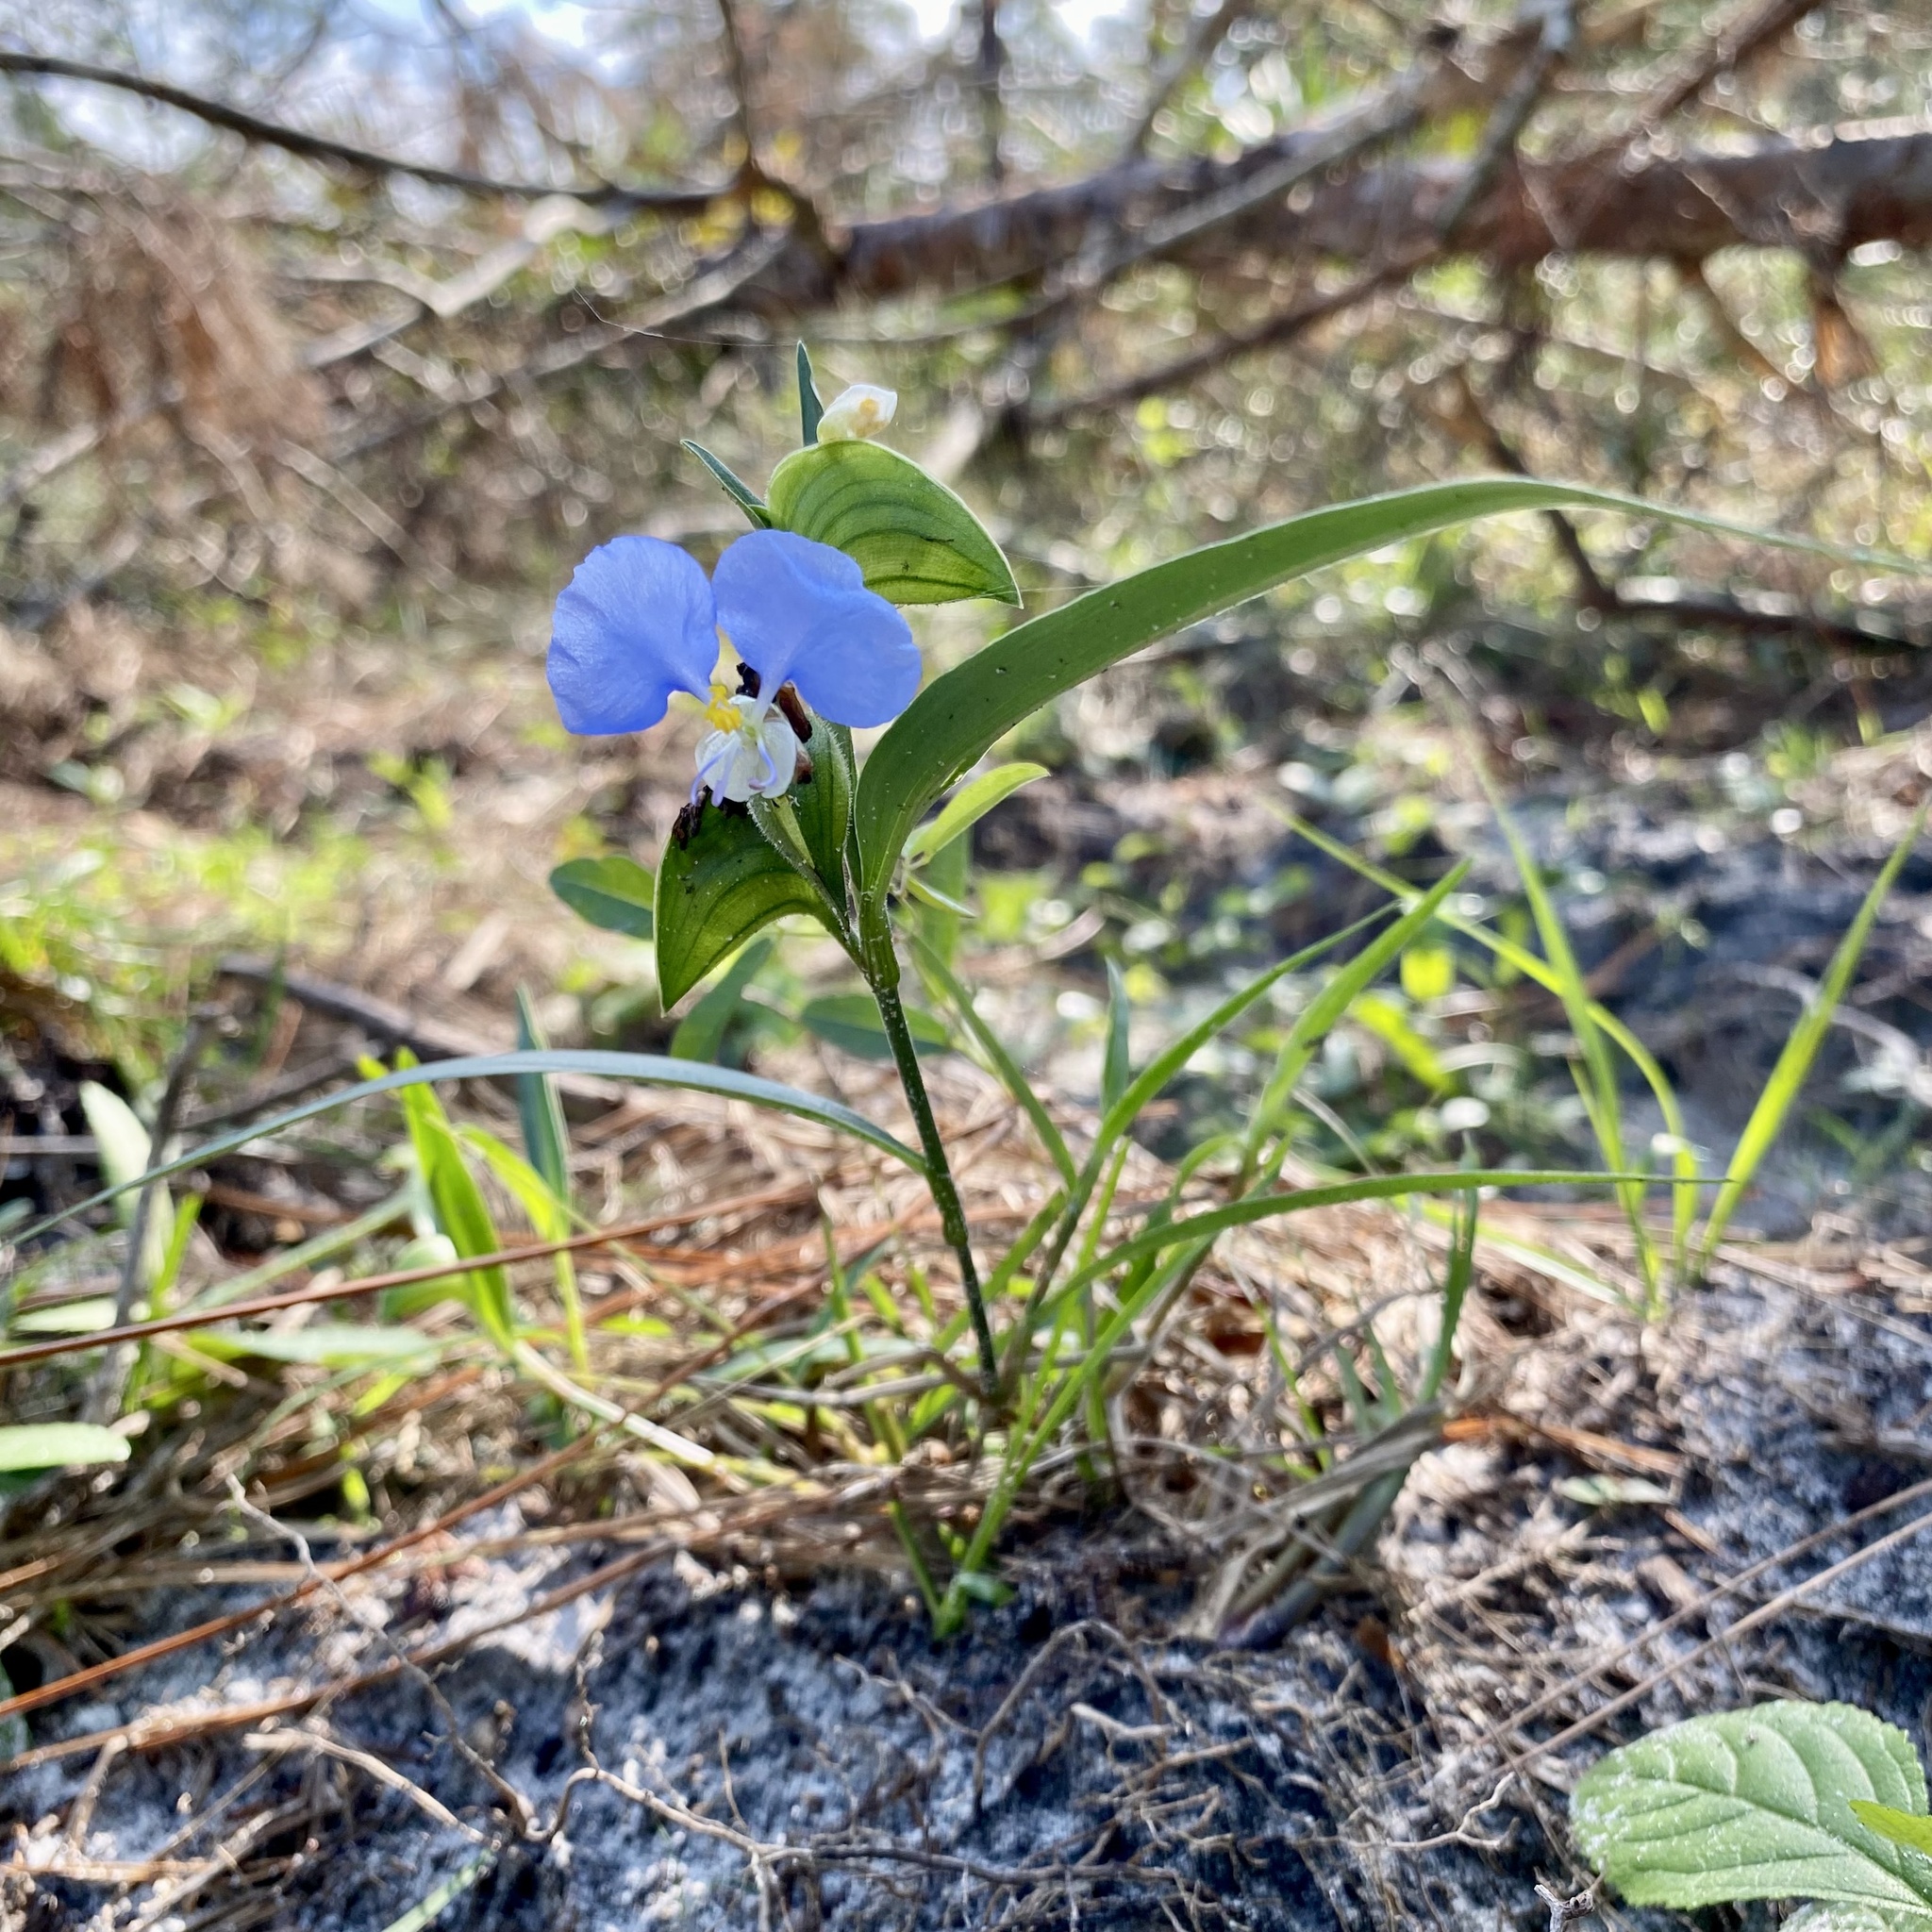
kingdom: Plantae
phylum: Tracheophyta
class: Liliopsida
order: Commelinales
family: Commelinaceae
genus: Commelina
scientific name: Commelina erecta
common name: Blousel blommetjie
